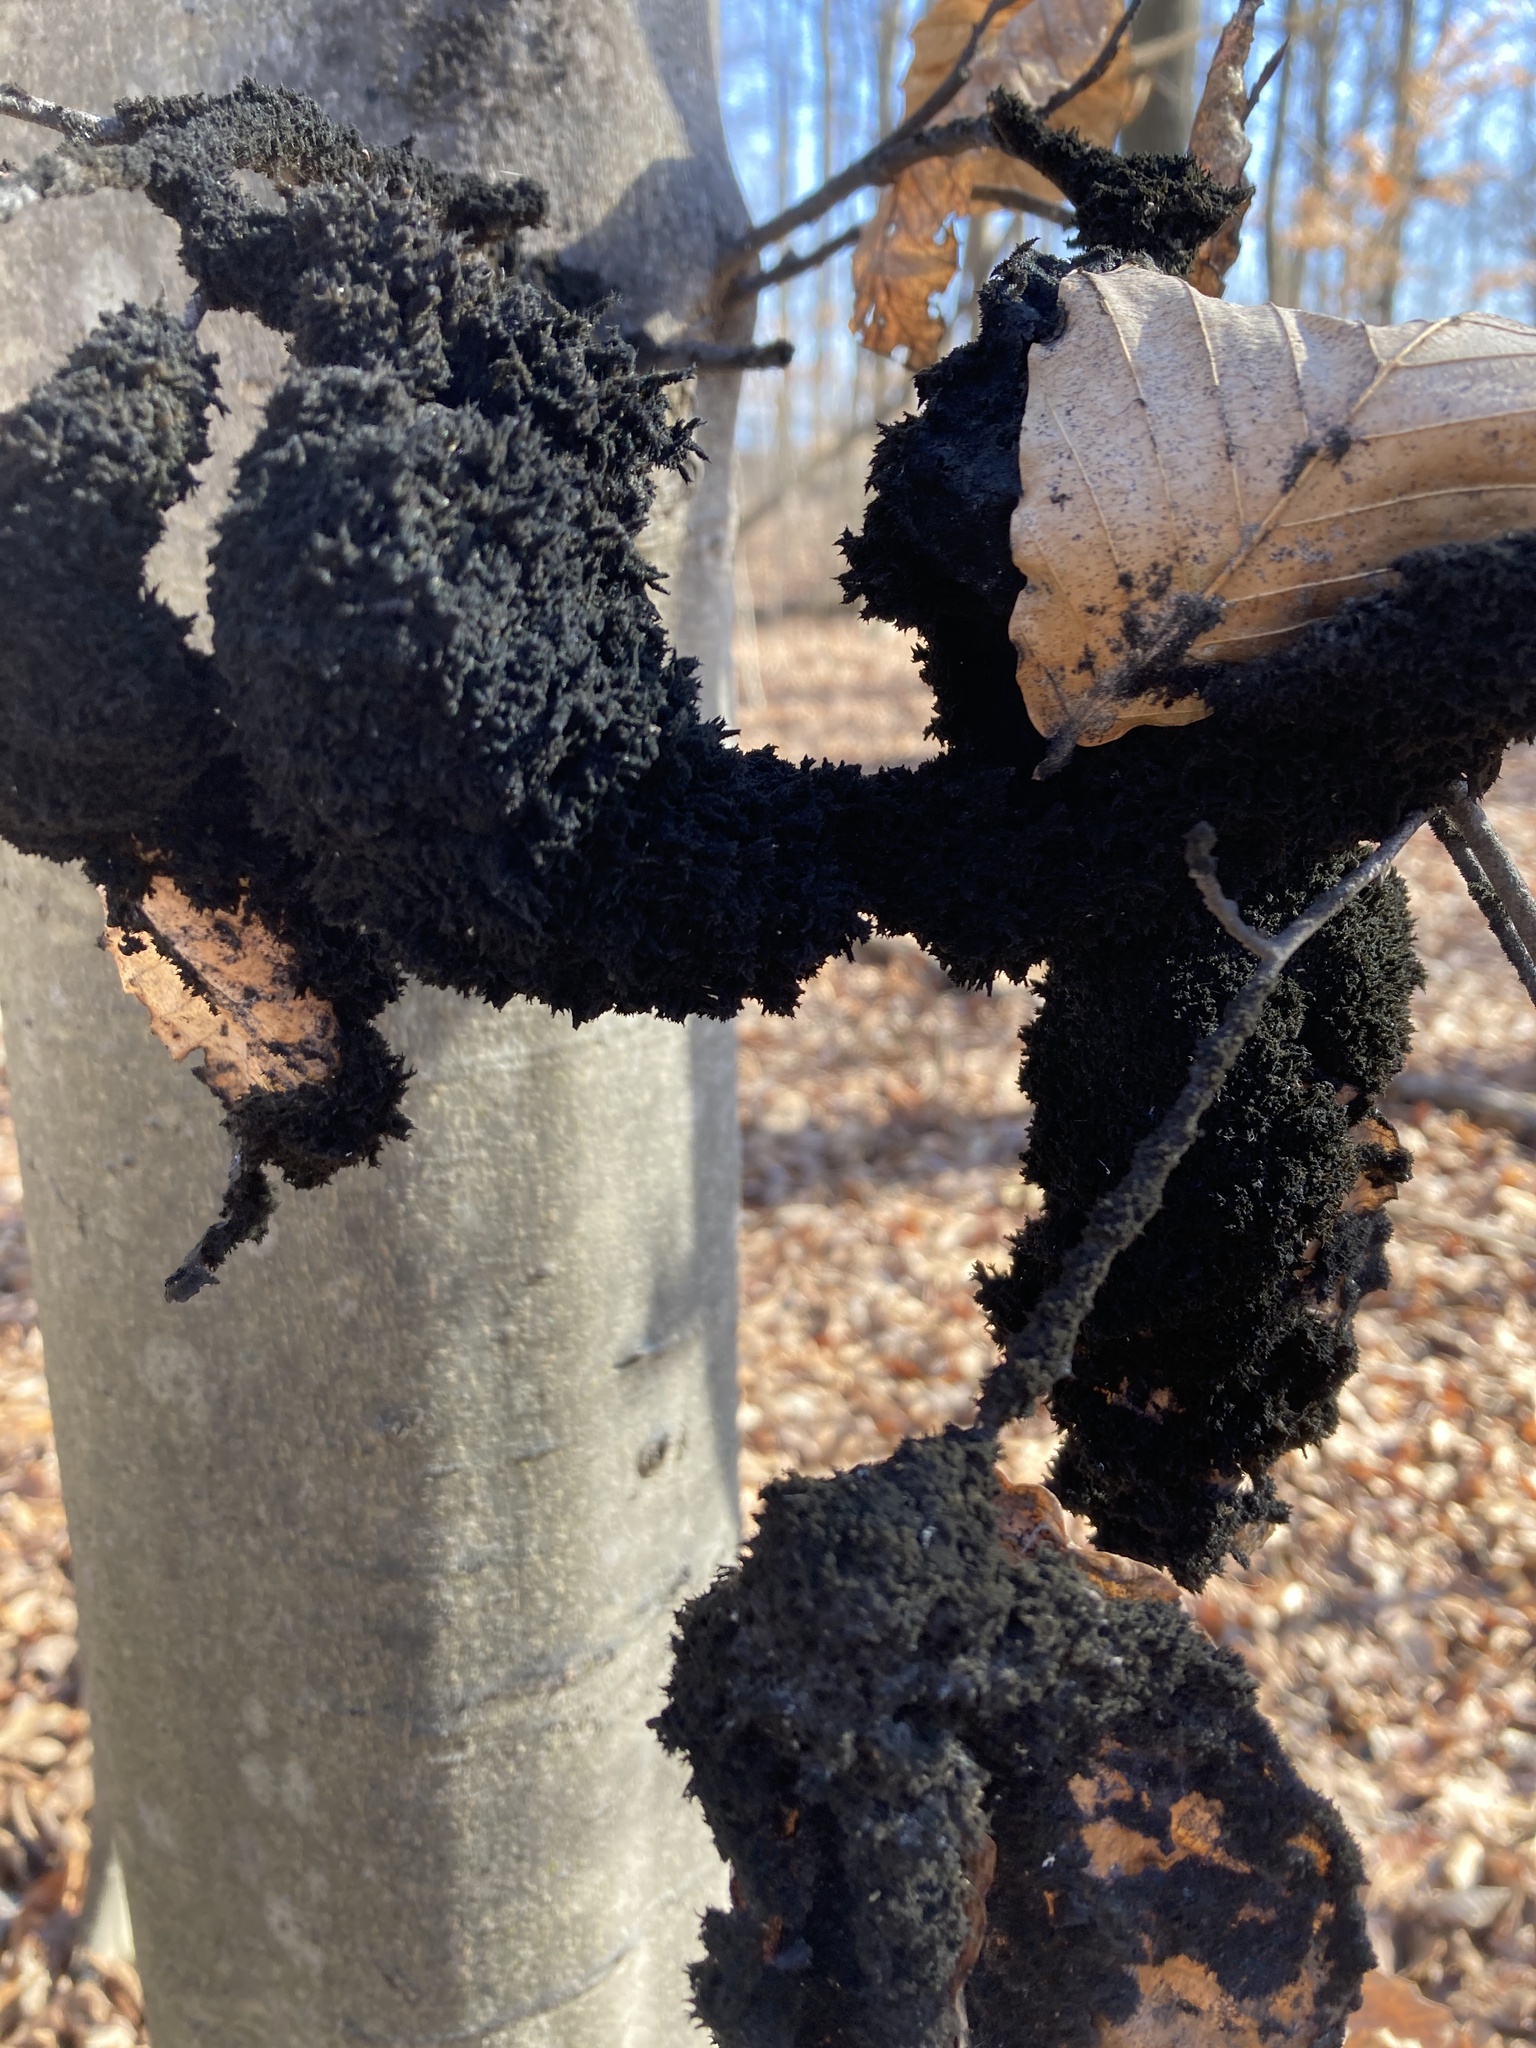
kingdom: Fungi
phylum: Ascomycota
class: Dothideomycetes
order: Capnodiales
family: Capnodiaceae
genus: Scorias
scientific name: Scorias spongiosa
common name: Black sooty mold
